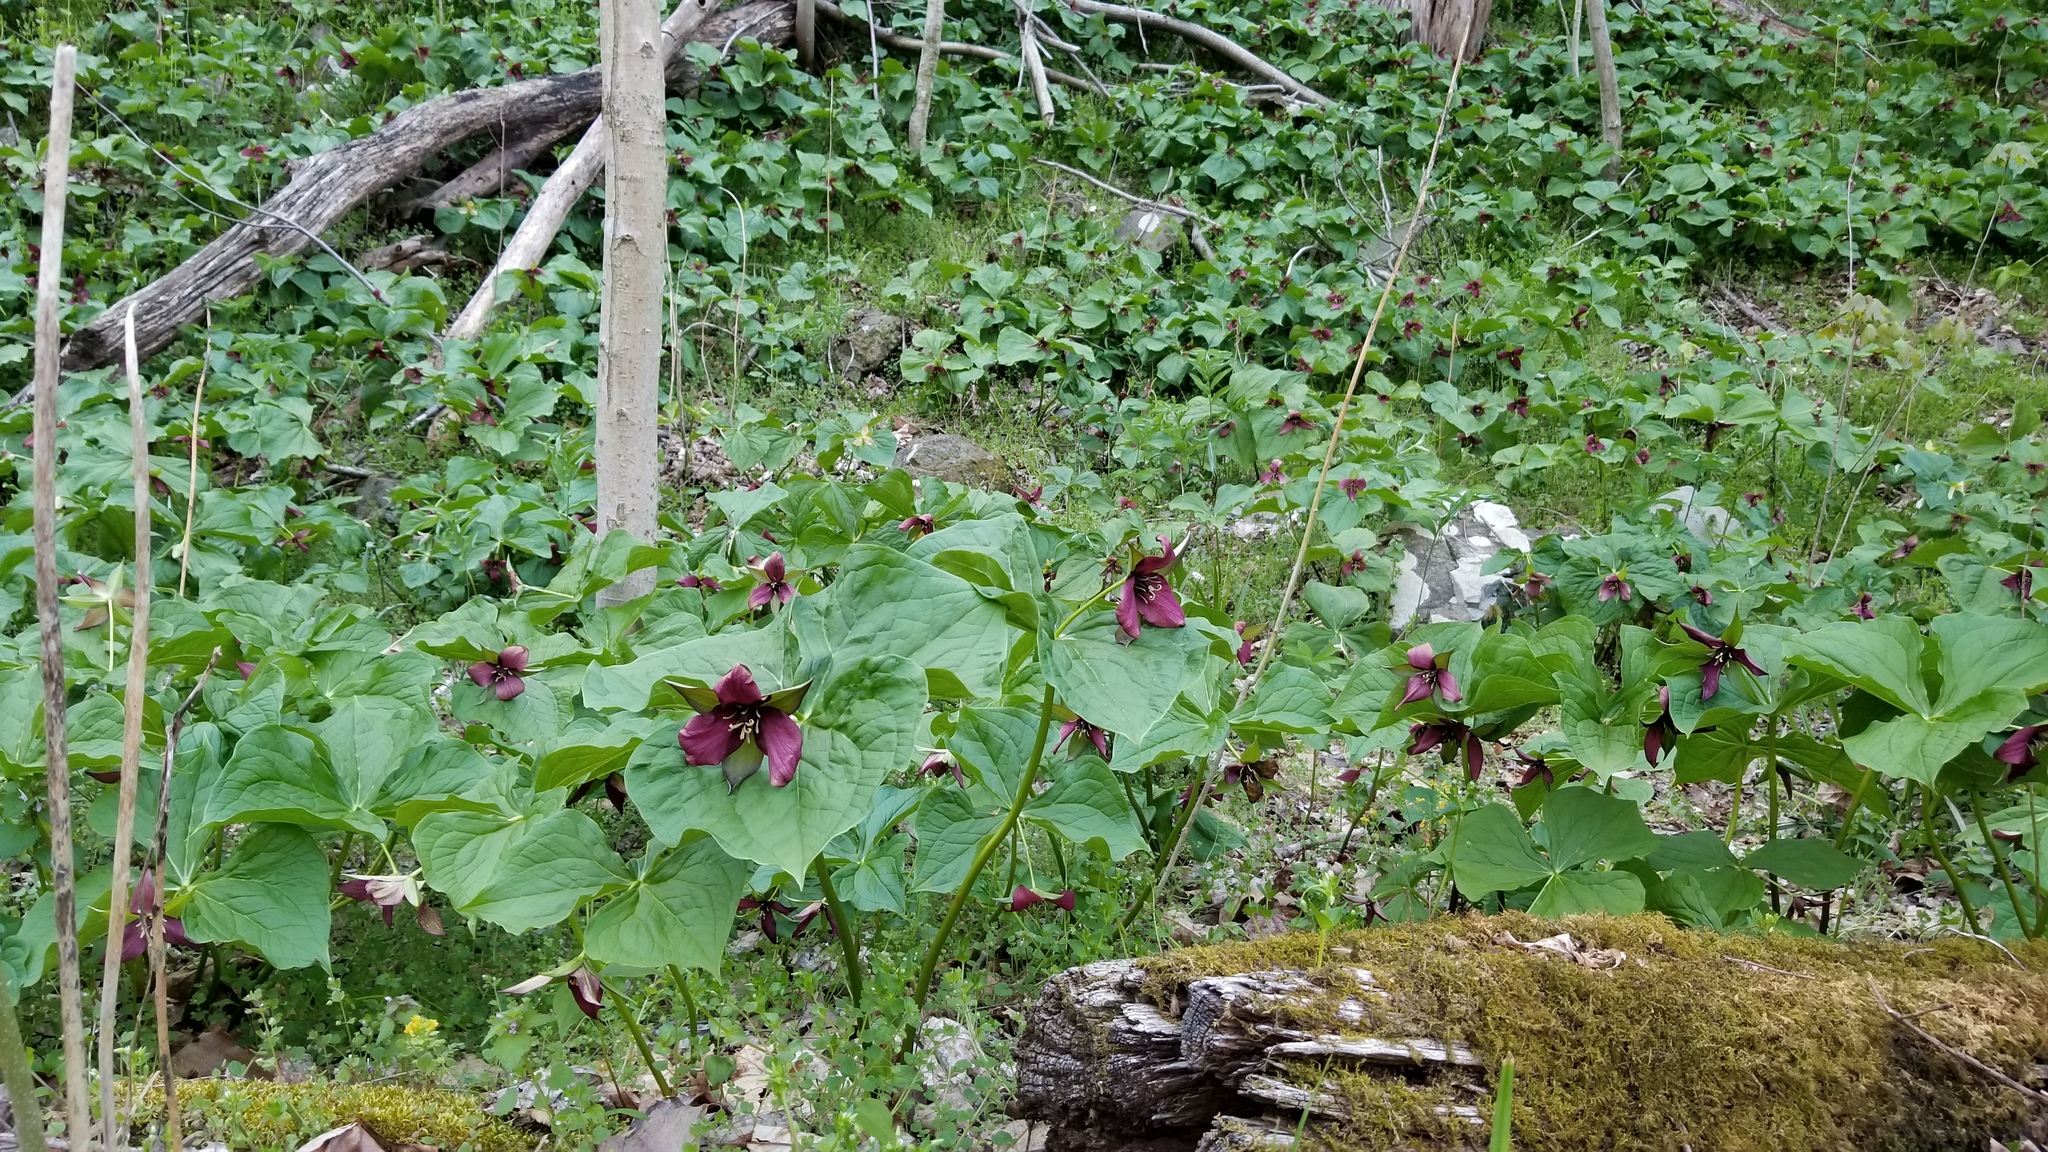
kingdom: Plantae
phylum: Tracheophyta
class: Liliopsida
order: Liliales
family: Melanthiaceae
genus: Trillium
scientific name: Trillium erectum
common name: Purple trillium
